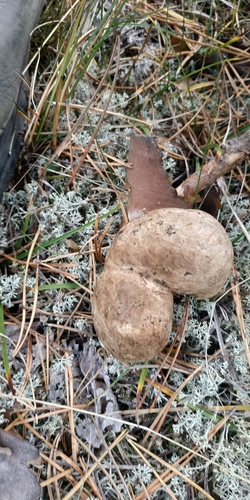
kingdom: Fungi
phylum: Basidiomycota
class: Agaricomycetes
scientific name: Agaricomycetes
